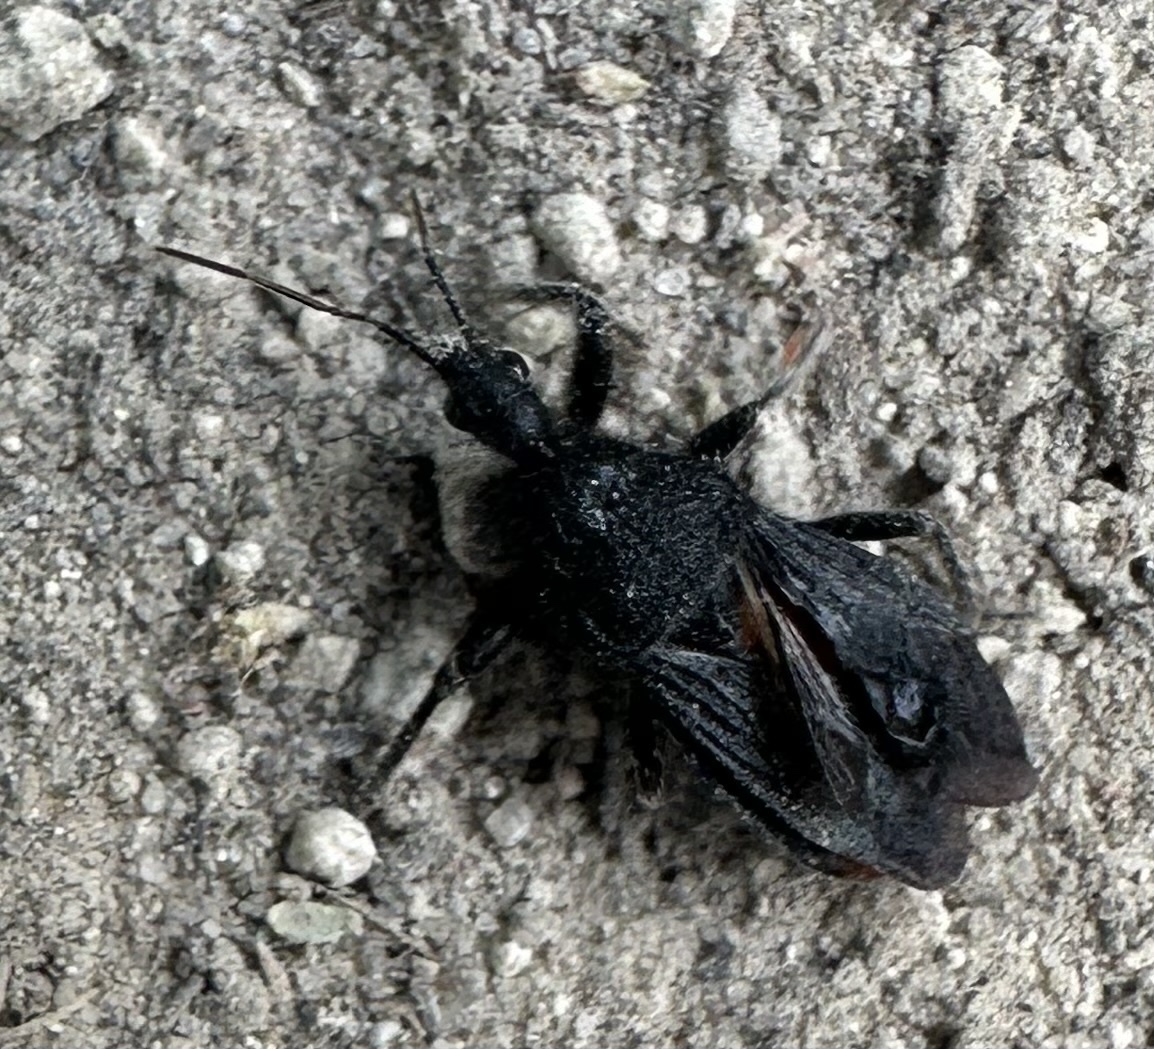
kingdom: Animalia
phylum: Arthropoda
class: Insecta
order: Hemiptera
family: Reduviidae
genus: Coranus
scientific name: Coranus carbonarius
